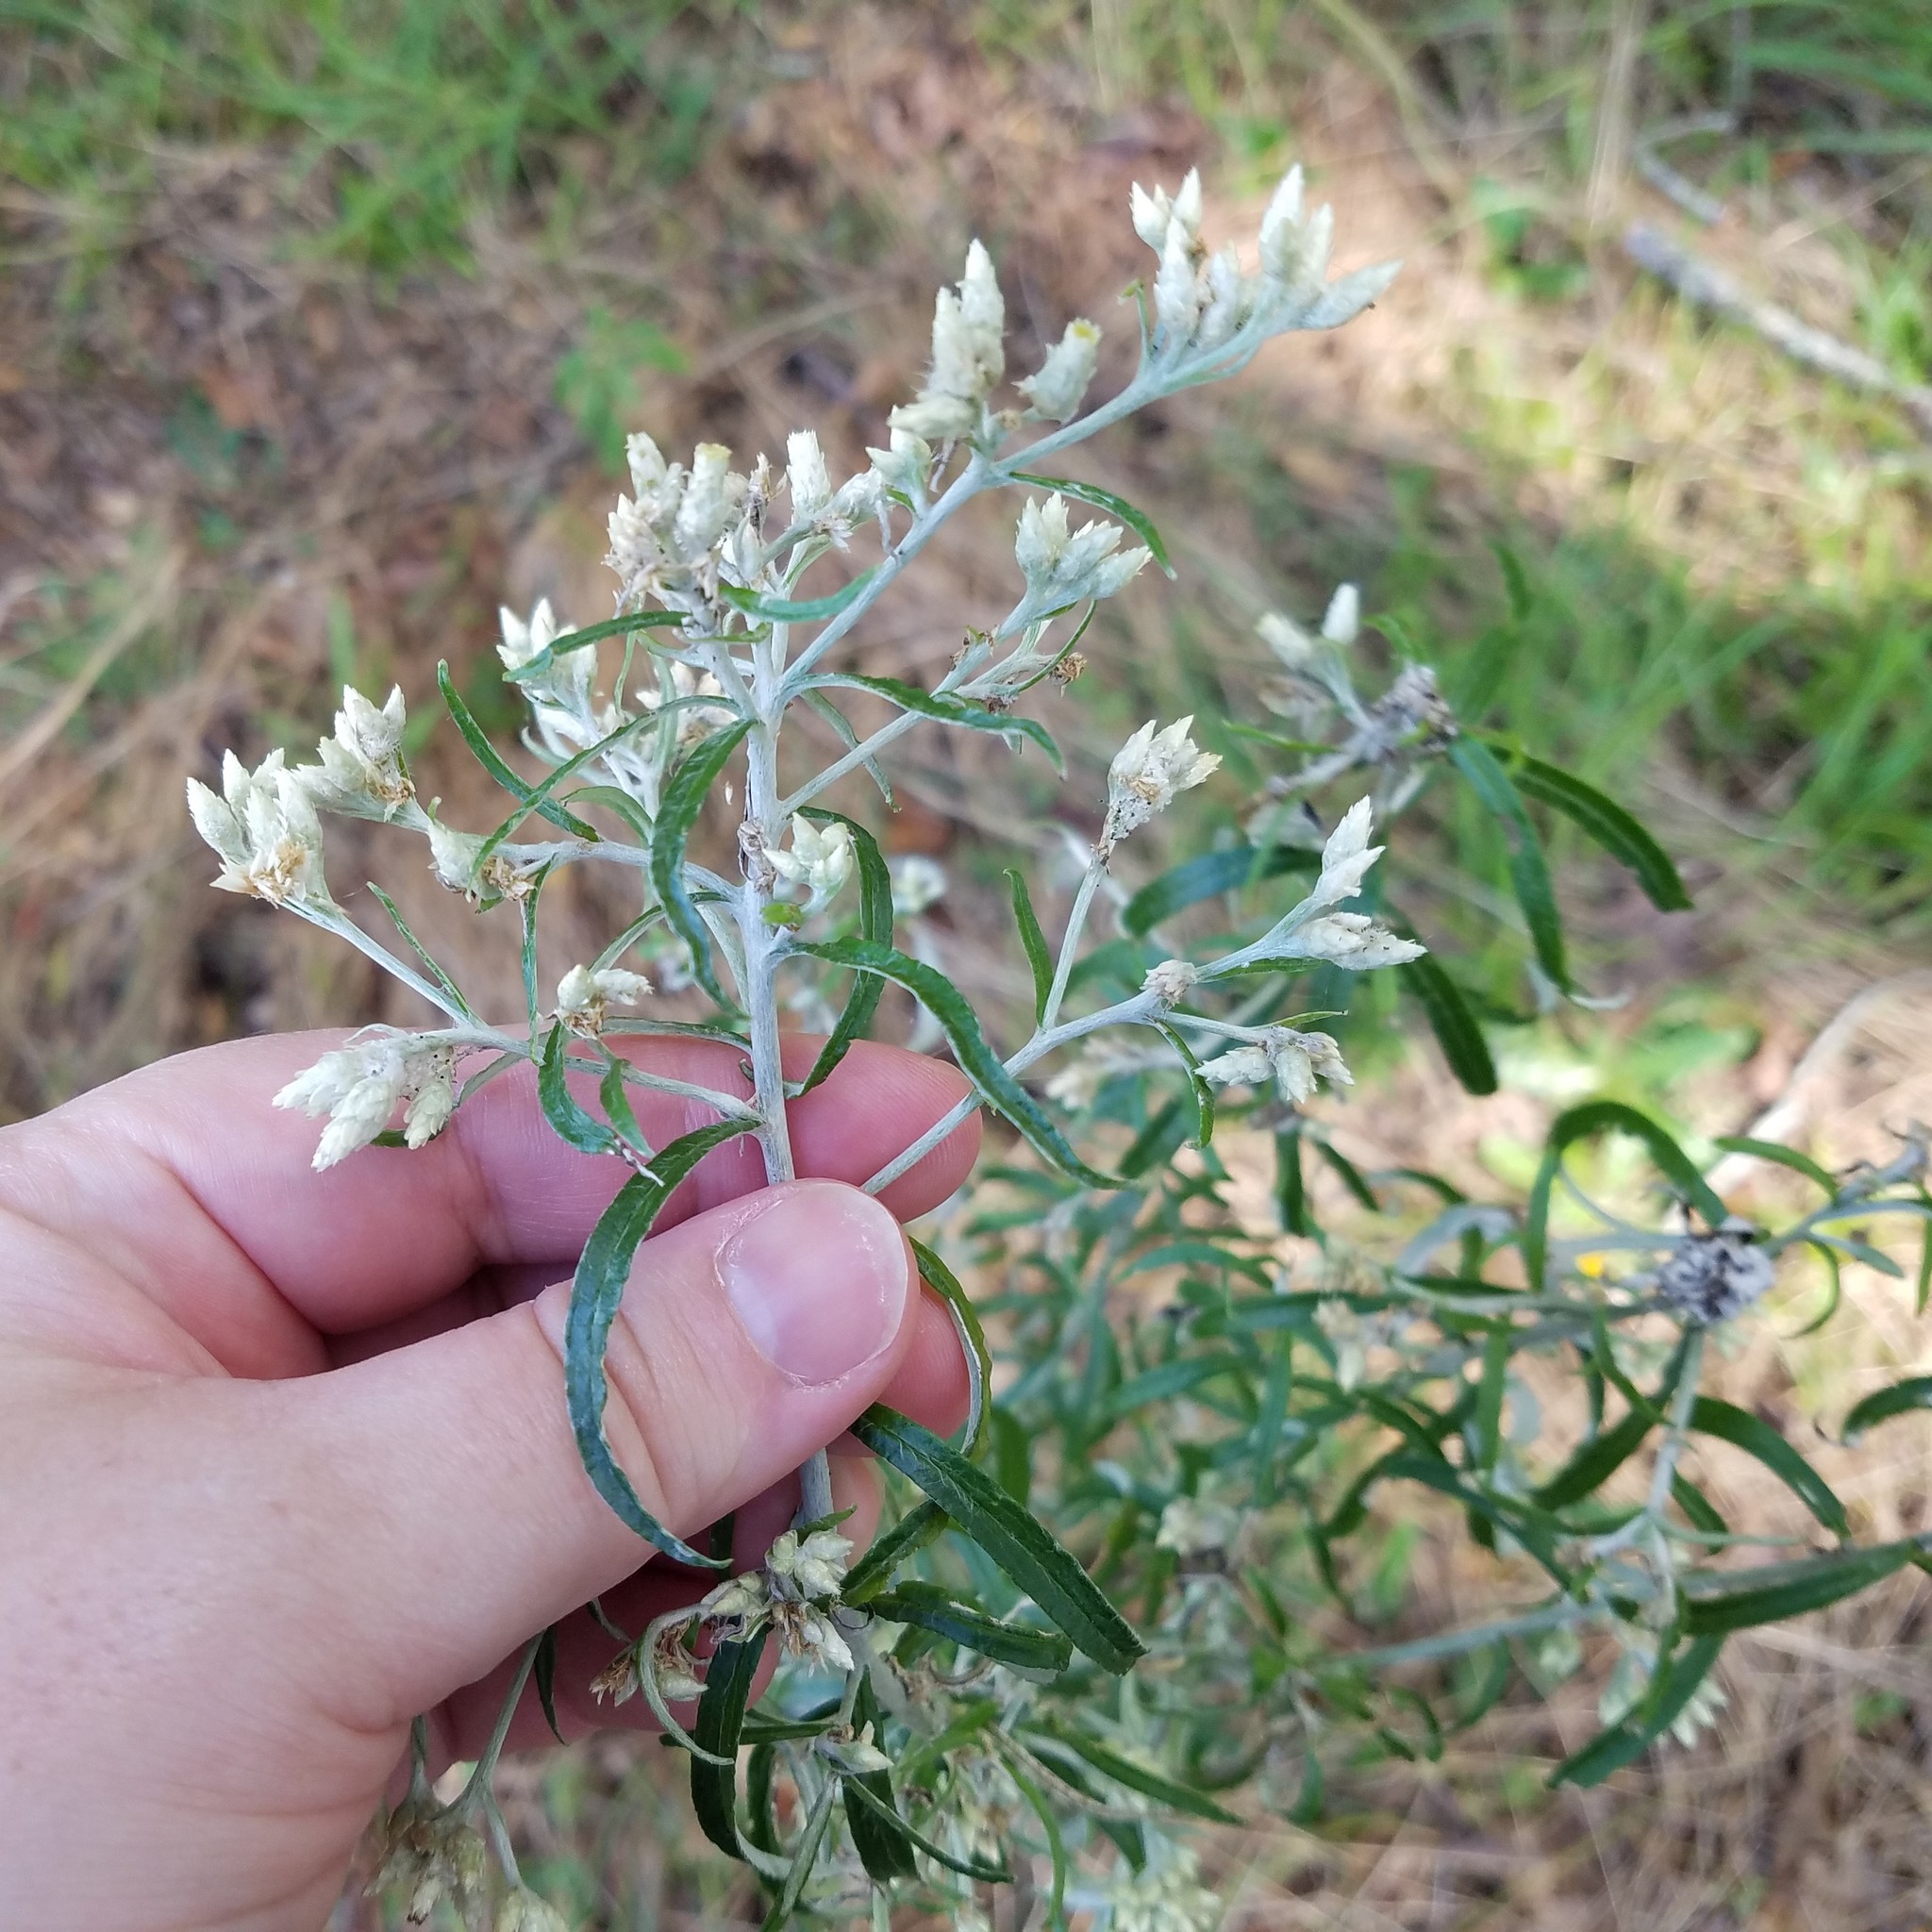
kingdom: Plantae
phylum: Tracheophyta
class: Magnoliopsida
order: Asterales
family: Asteraceae
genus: Pseudognaphalium
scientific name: Pseudognaphalium obtusifolium
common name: Eastern rabbit-tobacco
